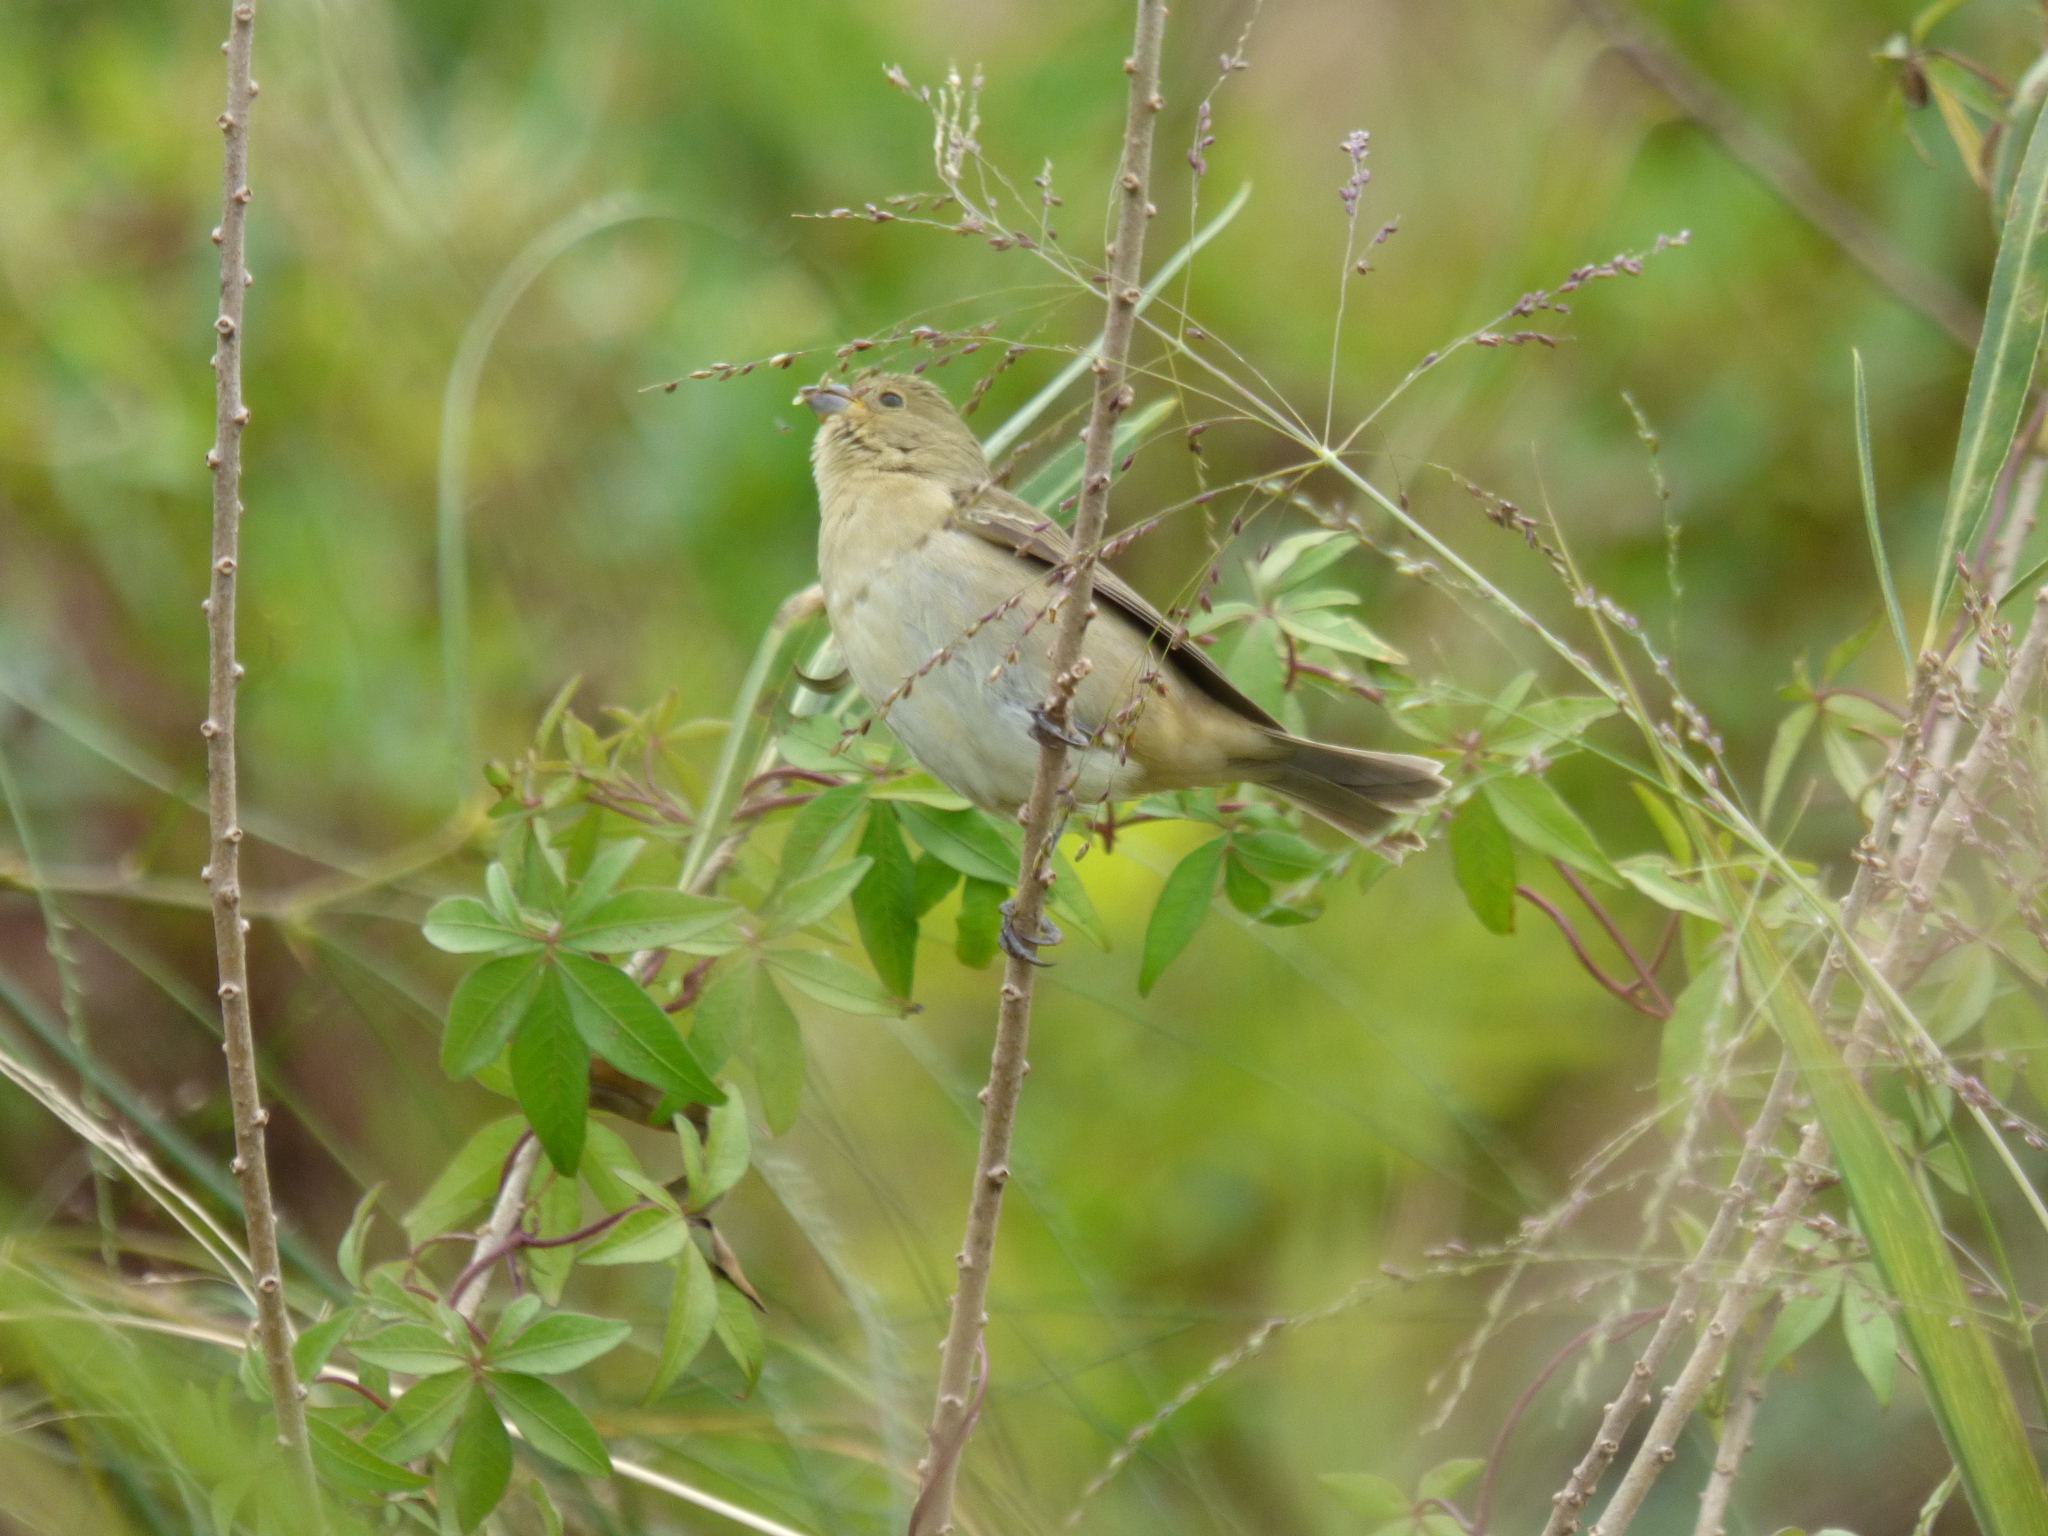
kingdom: Animalia
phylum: Chordata
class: Aves
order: Passeriformes
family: Thraupidae
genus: Sporophila
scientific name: Sporophila caerulescens
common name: Double-collared seedeater
